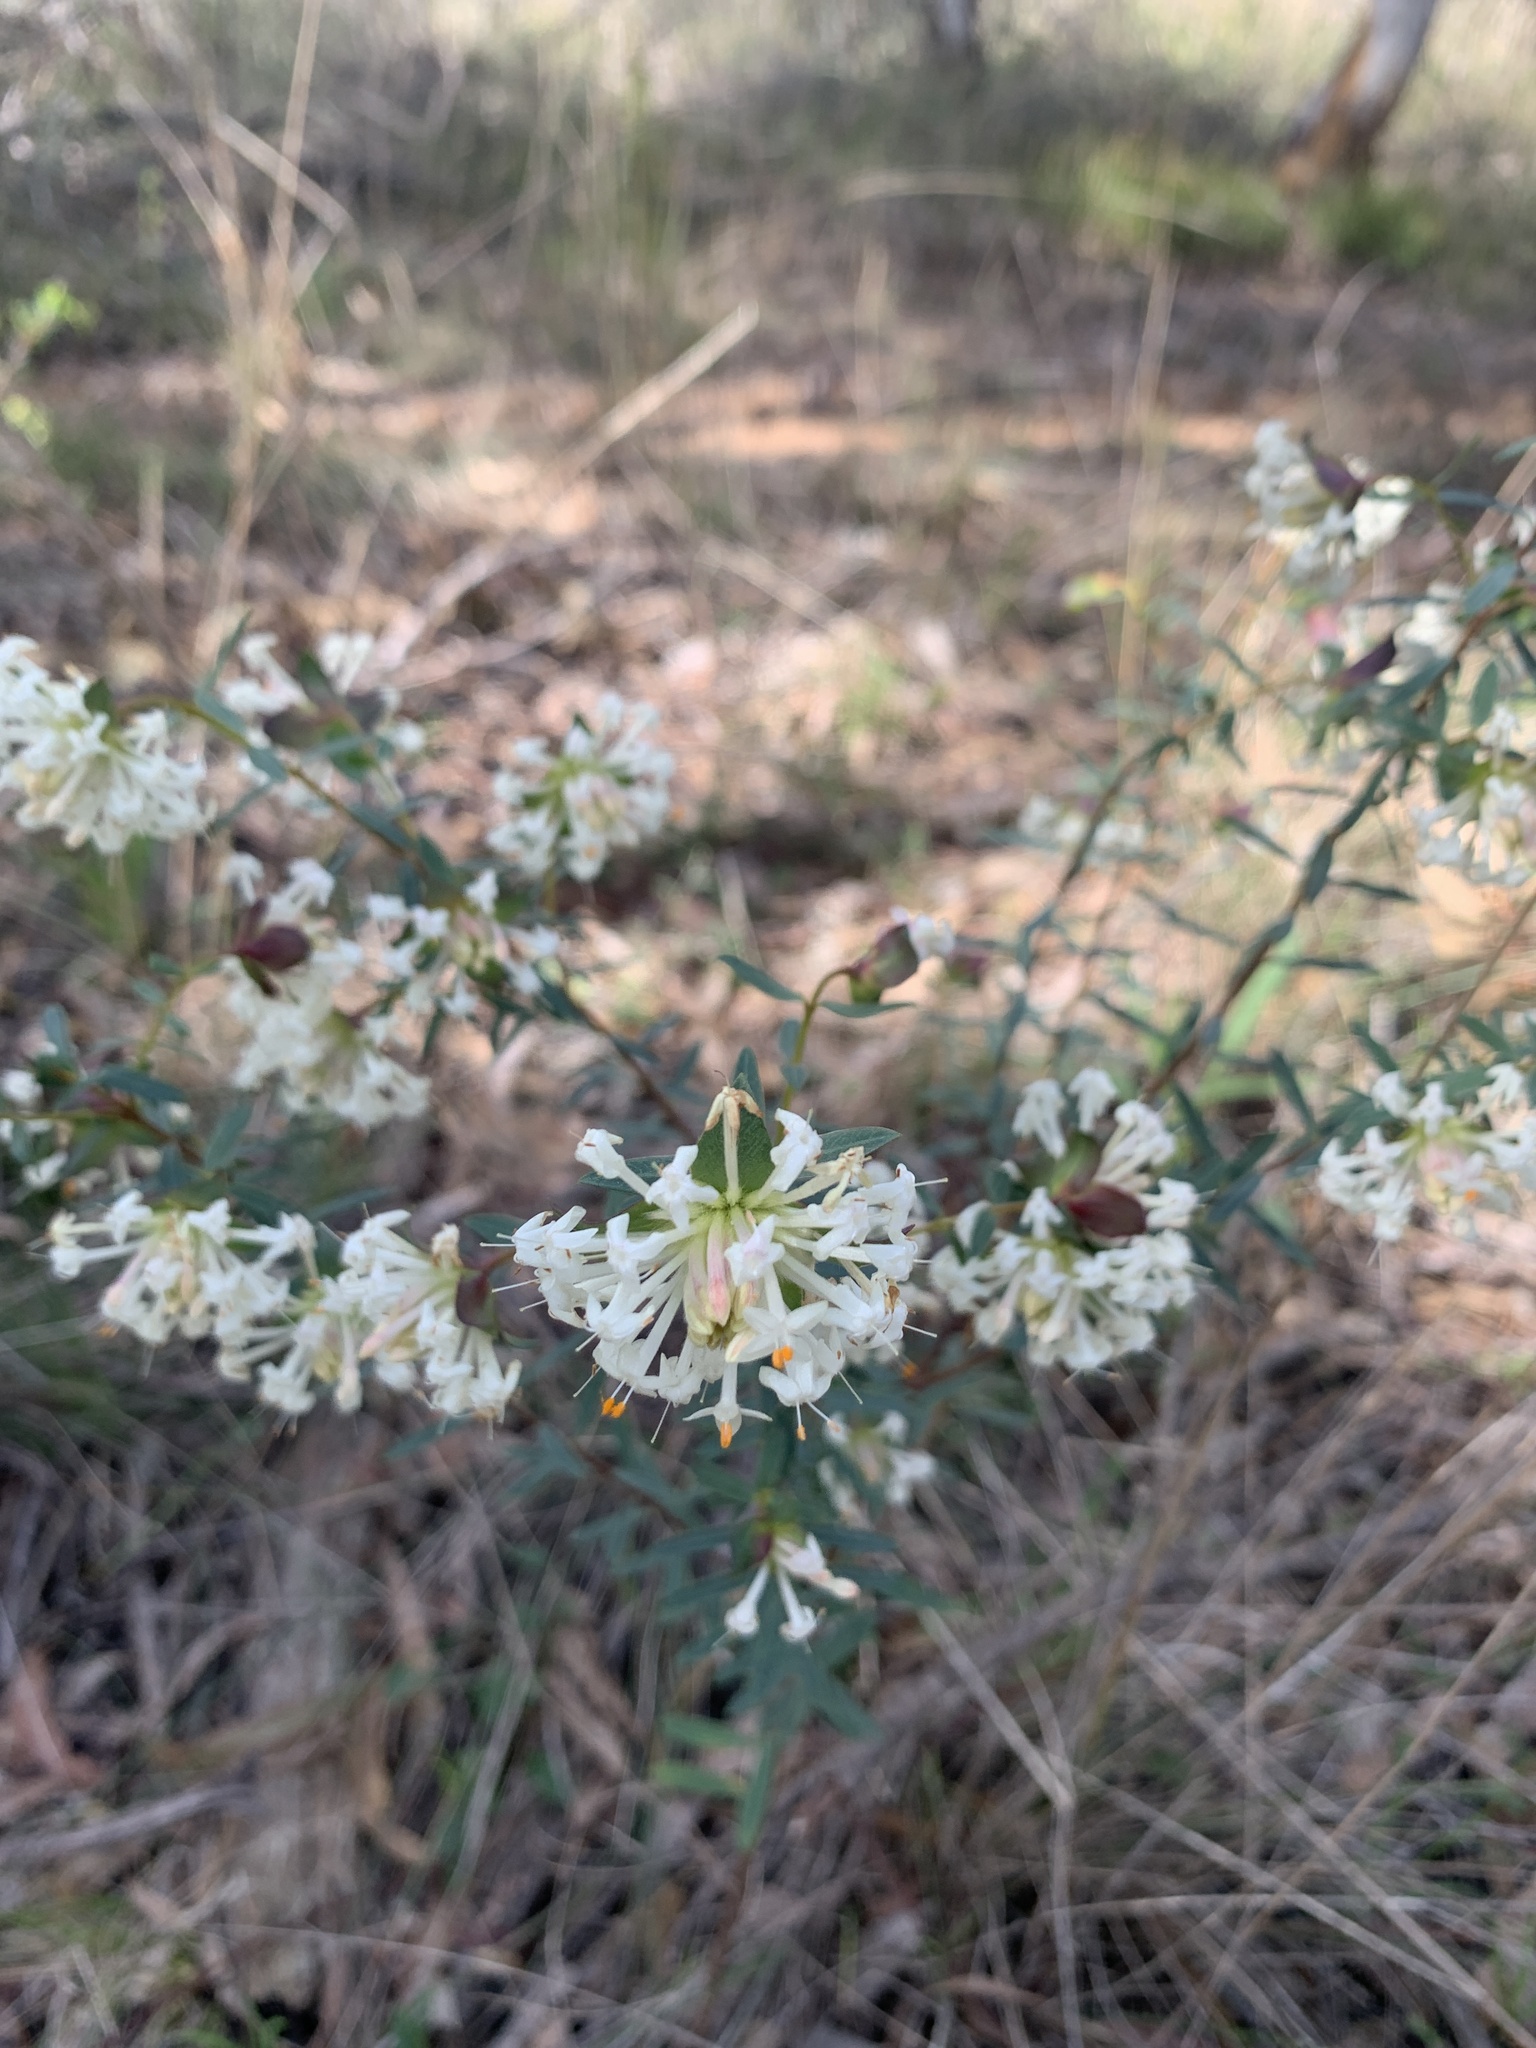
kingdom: Plantae
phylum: Tracheophyta
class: Magnoliopsida
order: Malvales
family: Thymelaeaceae
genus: Pimelea
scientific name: Pimelea linifolia
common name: Queen-of-the-bush
